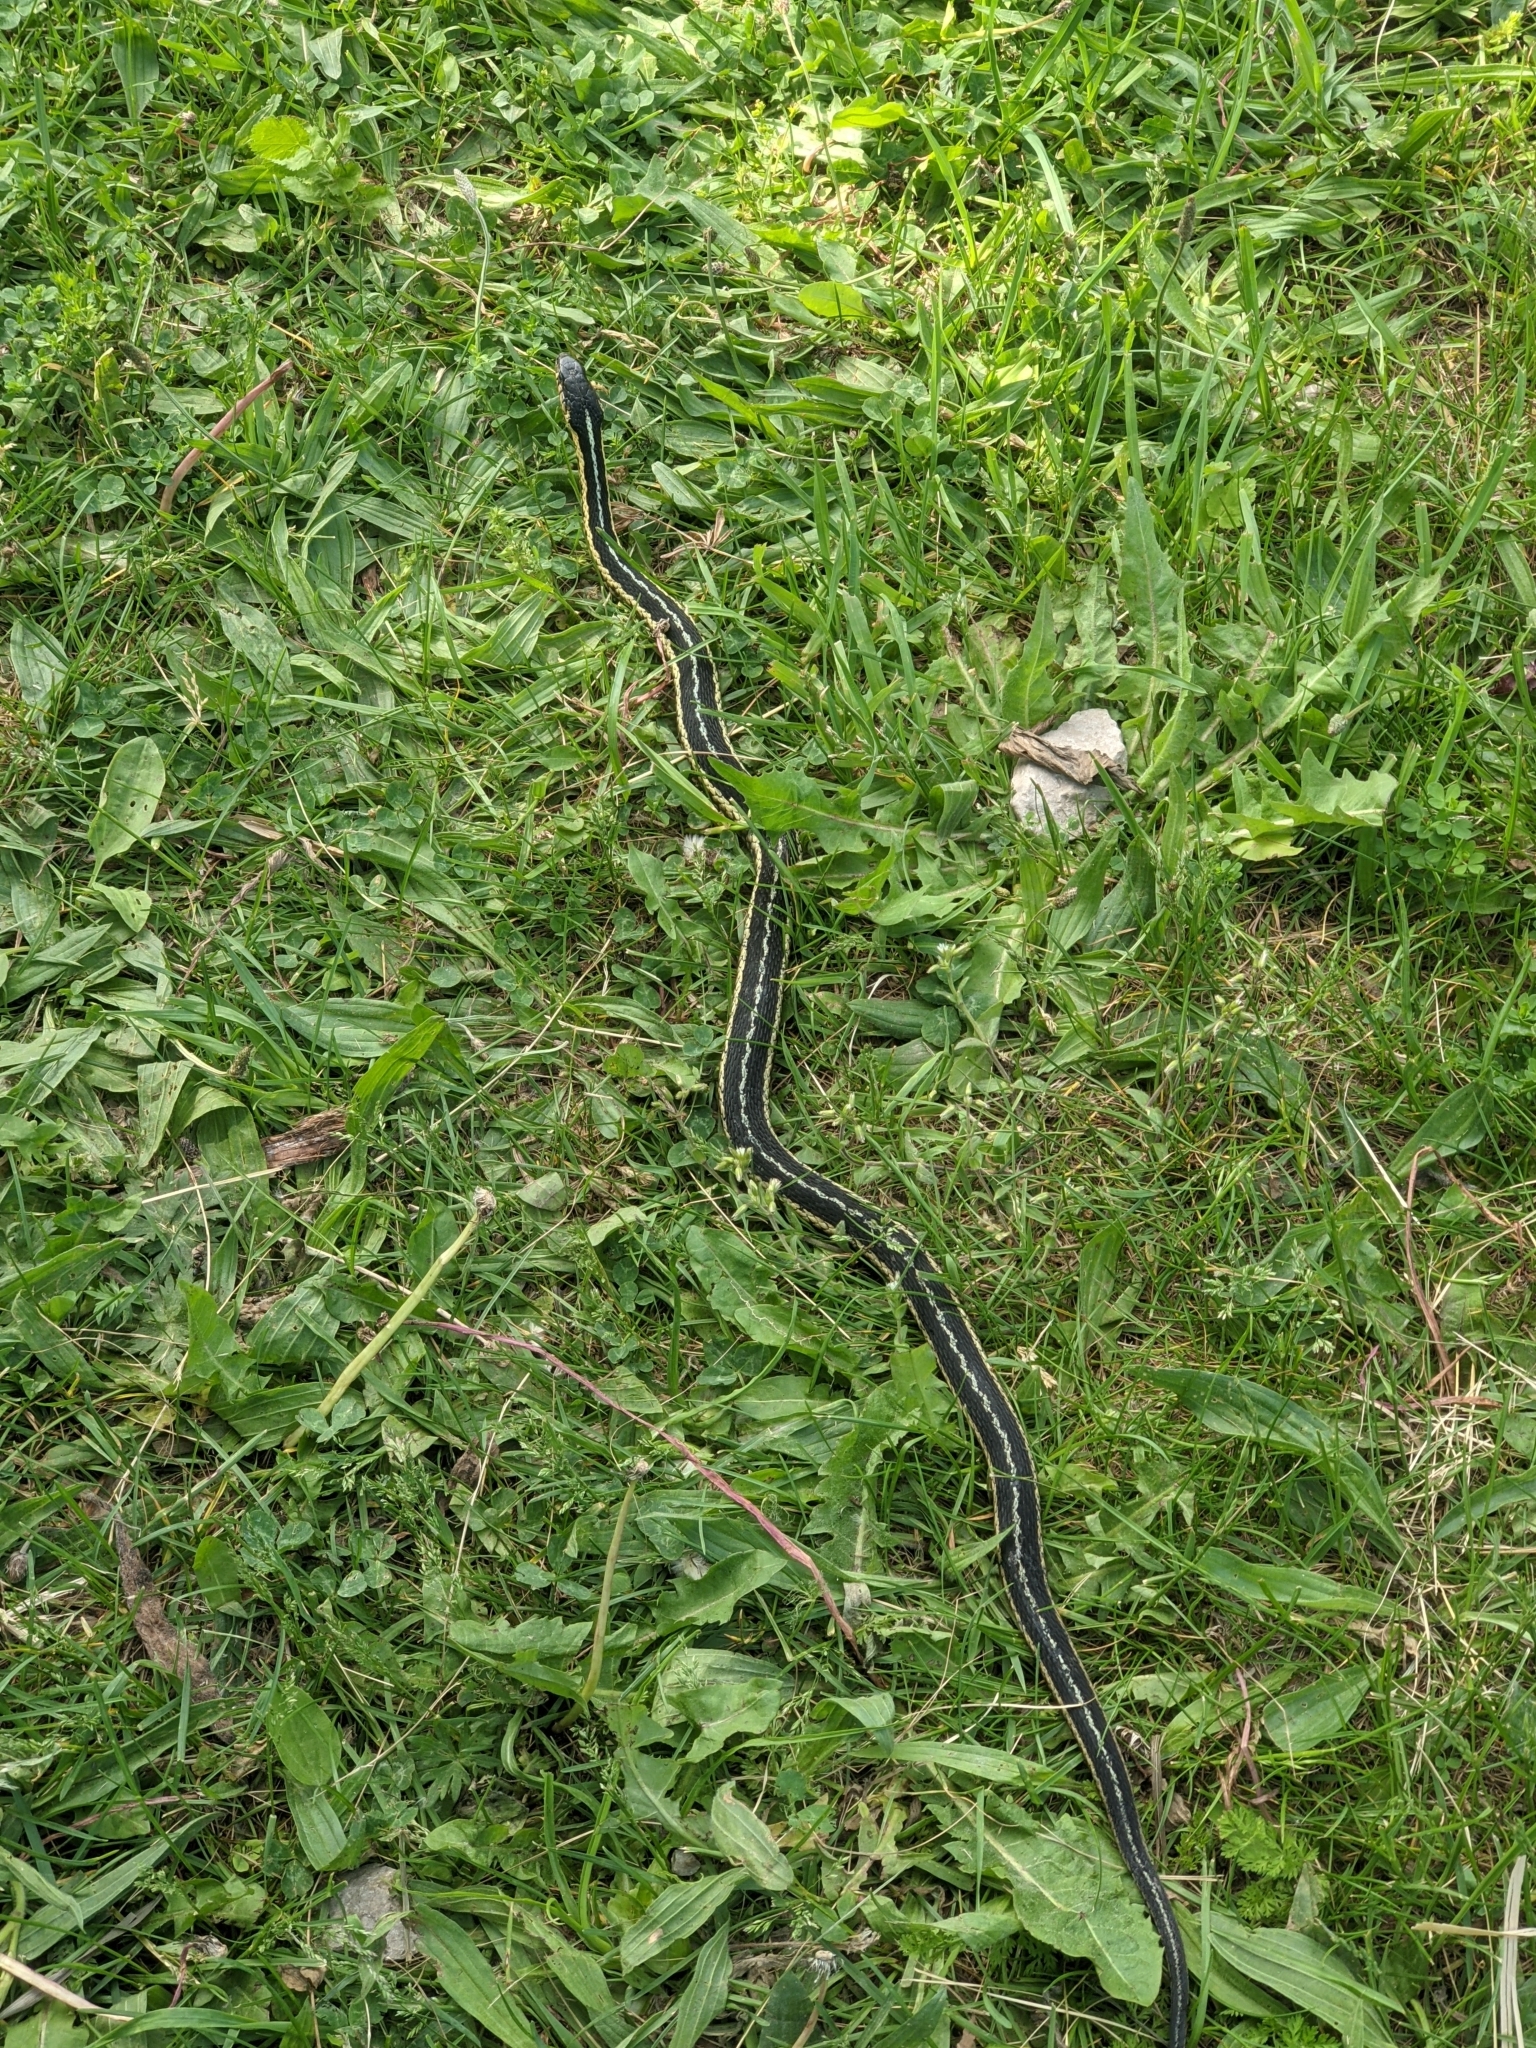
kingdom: Animalia
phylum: Chordata
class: Squamata
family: Colubridae
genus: Thamnophis
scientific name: Thamnophis sirtalis
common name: Common garter snake
